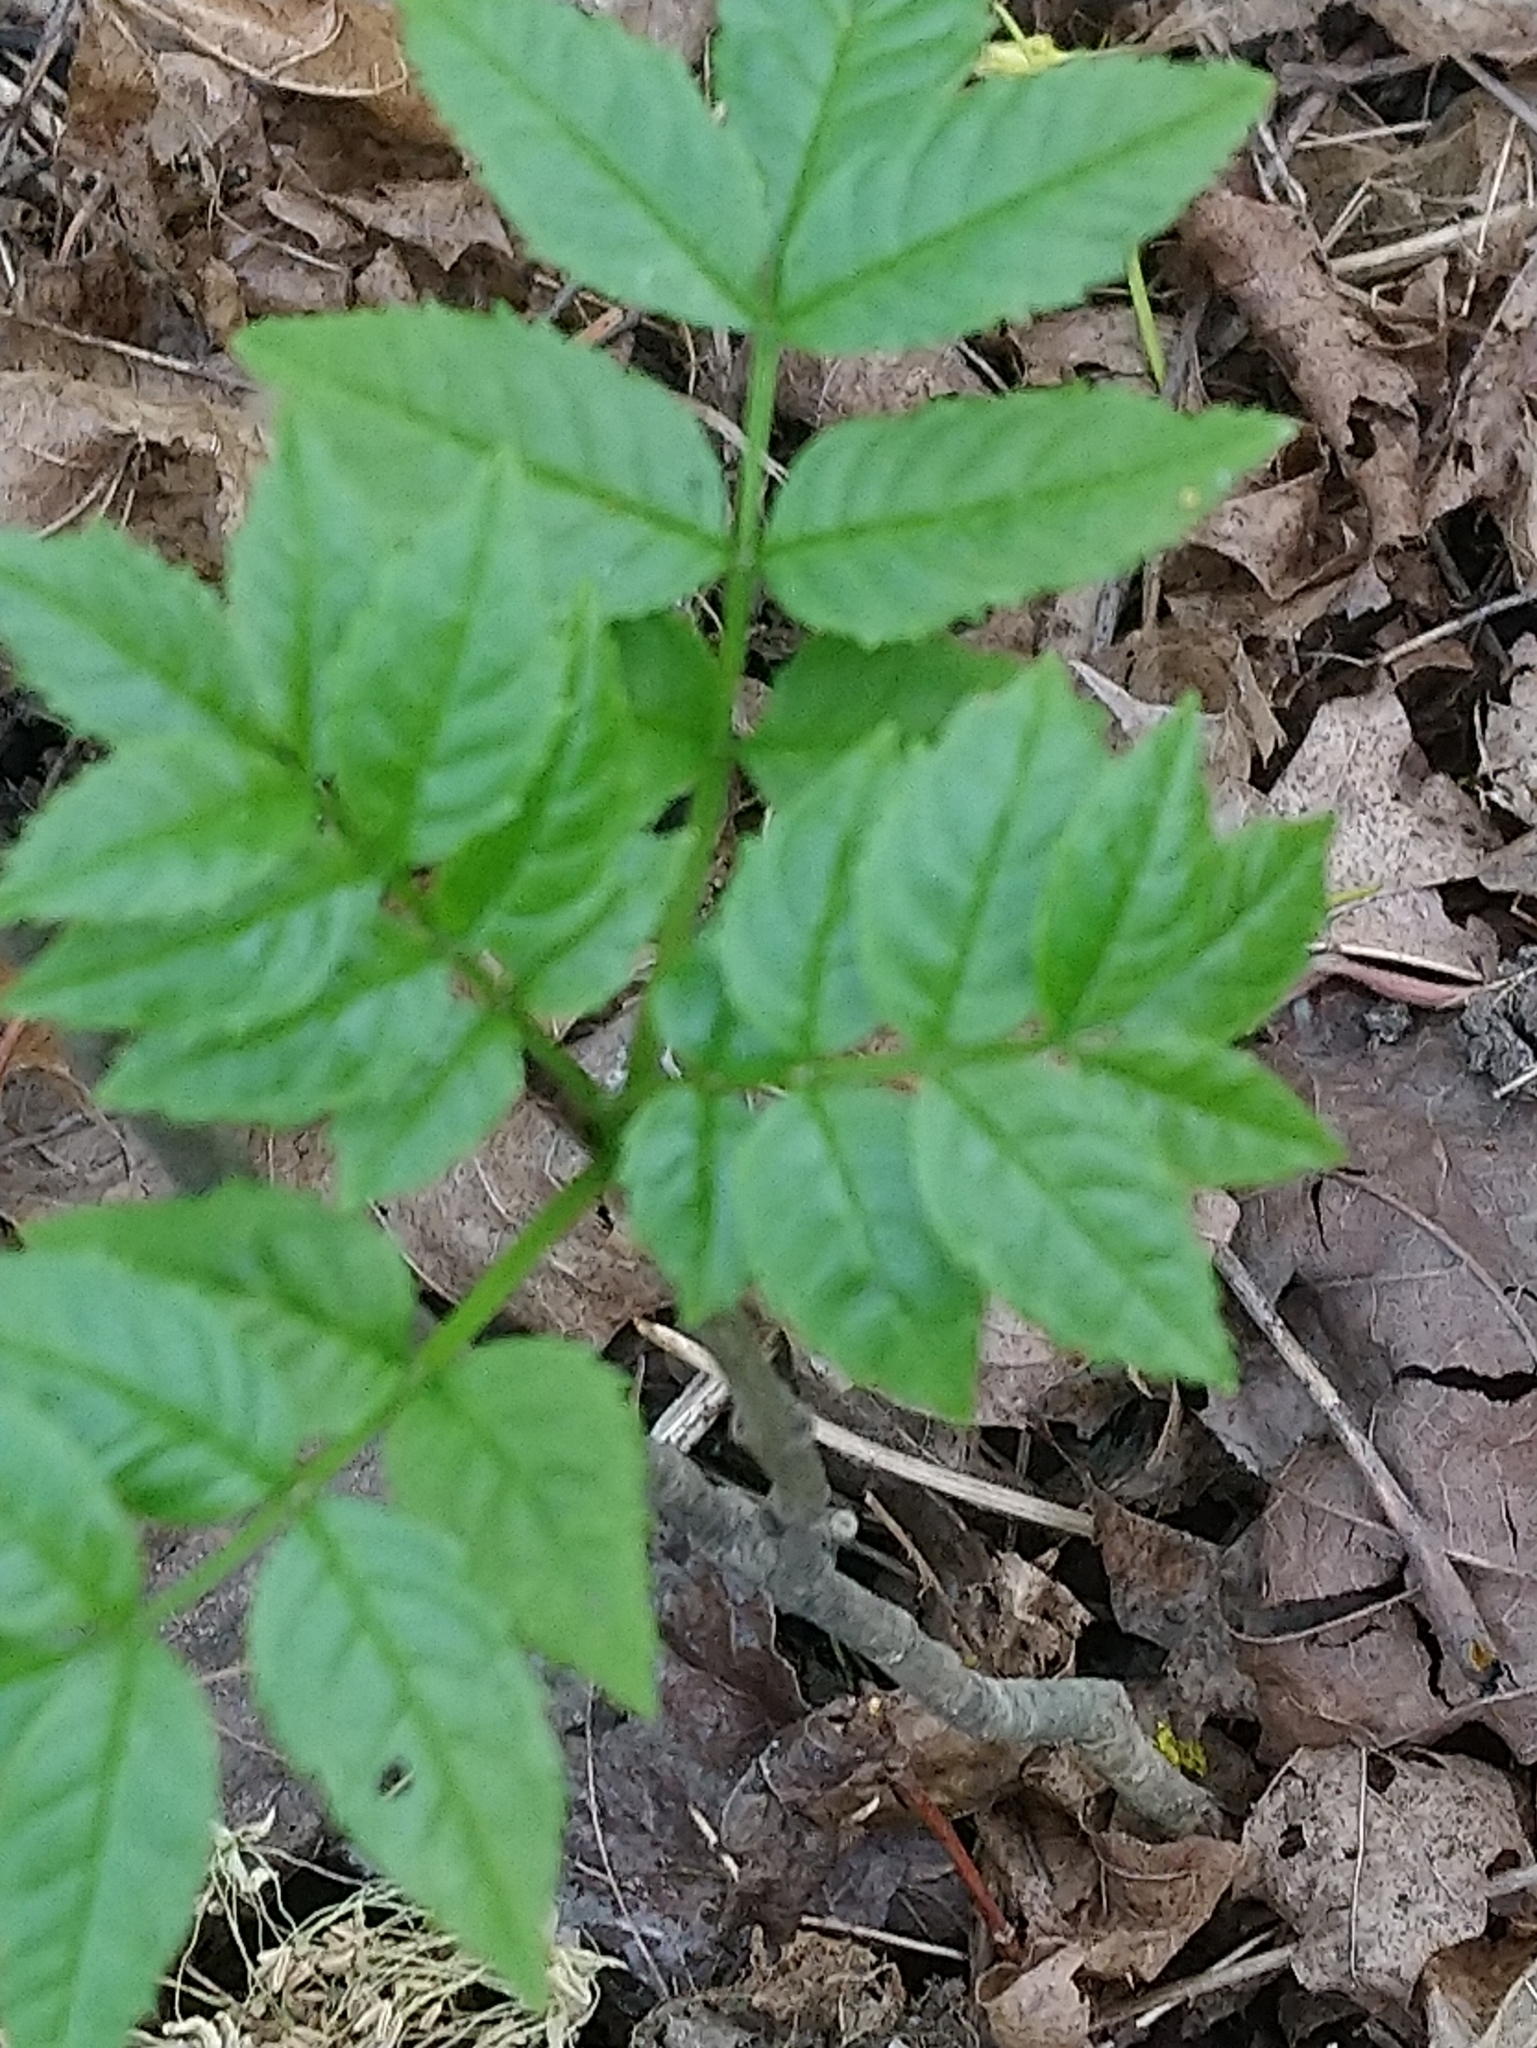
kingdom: Plantae
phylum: Tracheophyta
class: Magnoliopsida
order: Lamiales
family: Oleaceae
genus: Fraxinus
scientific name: Fraxinus excelsior
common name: European ash
